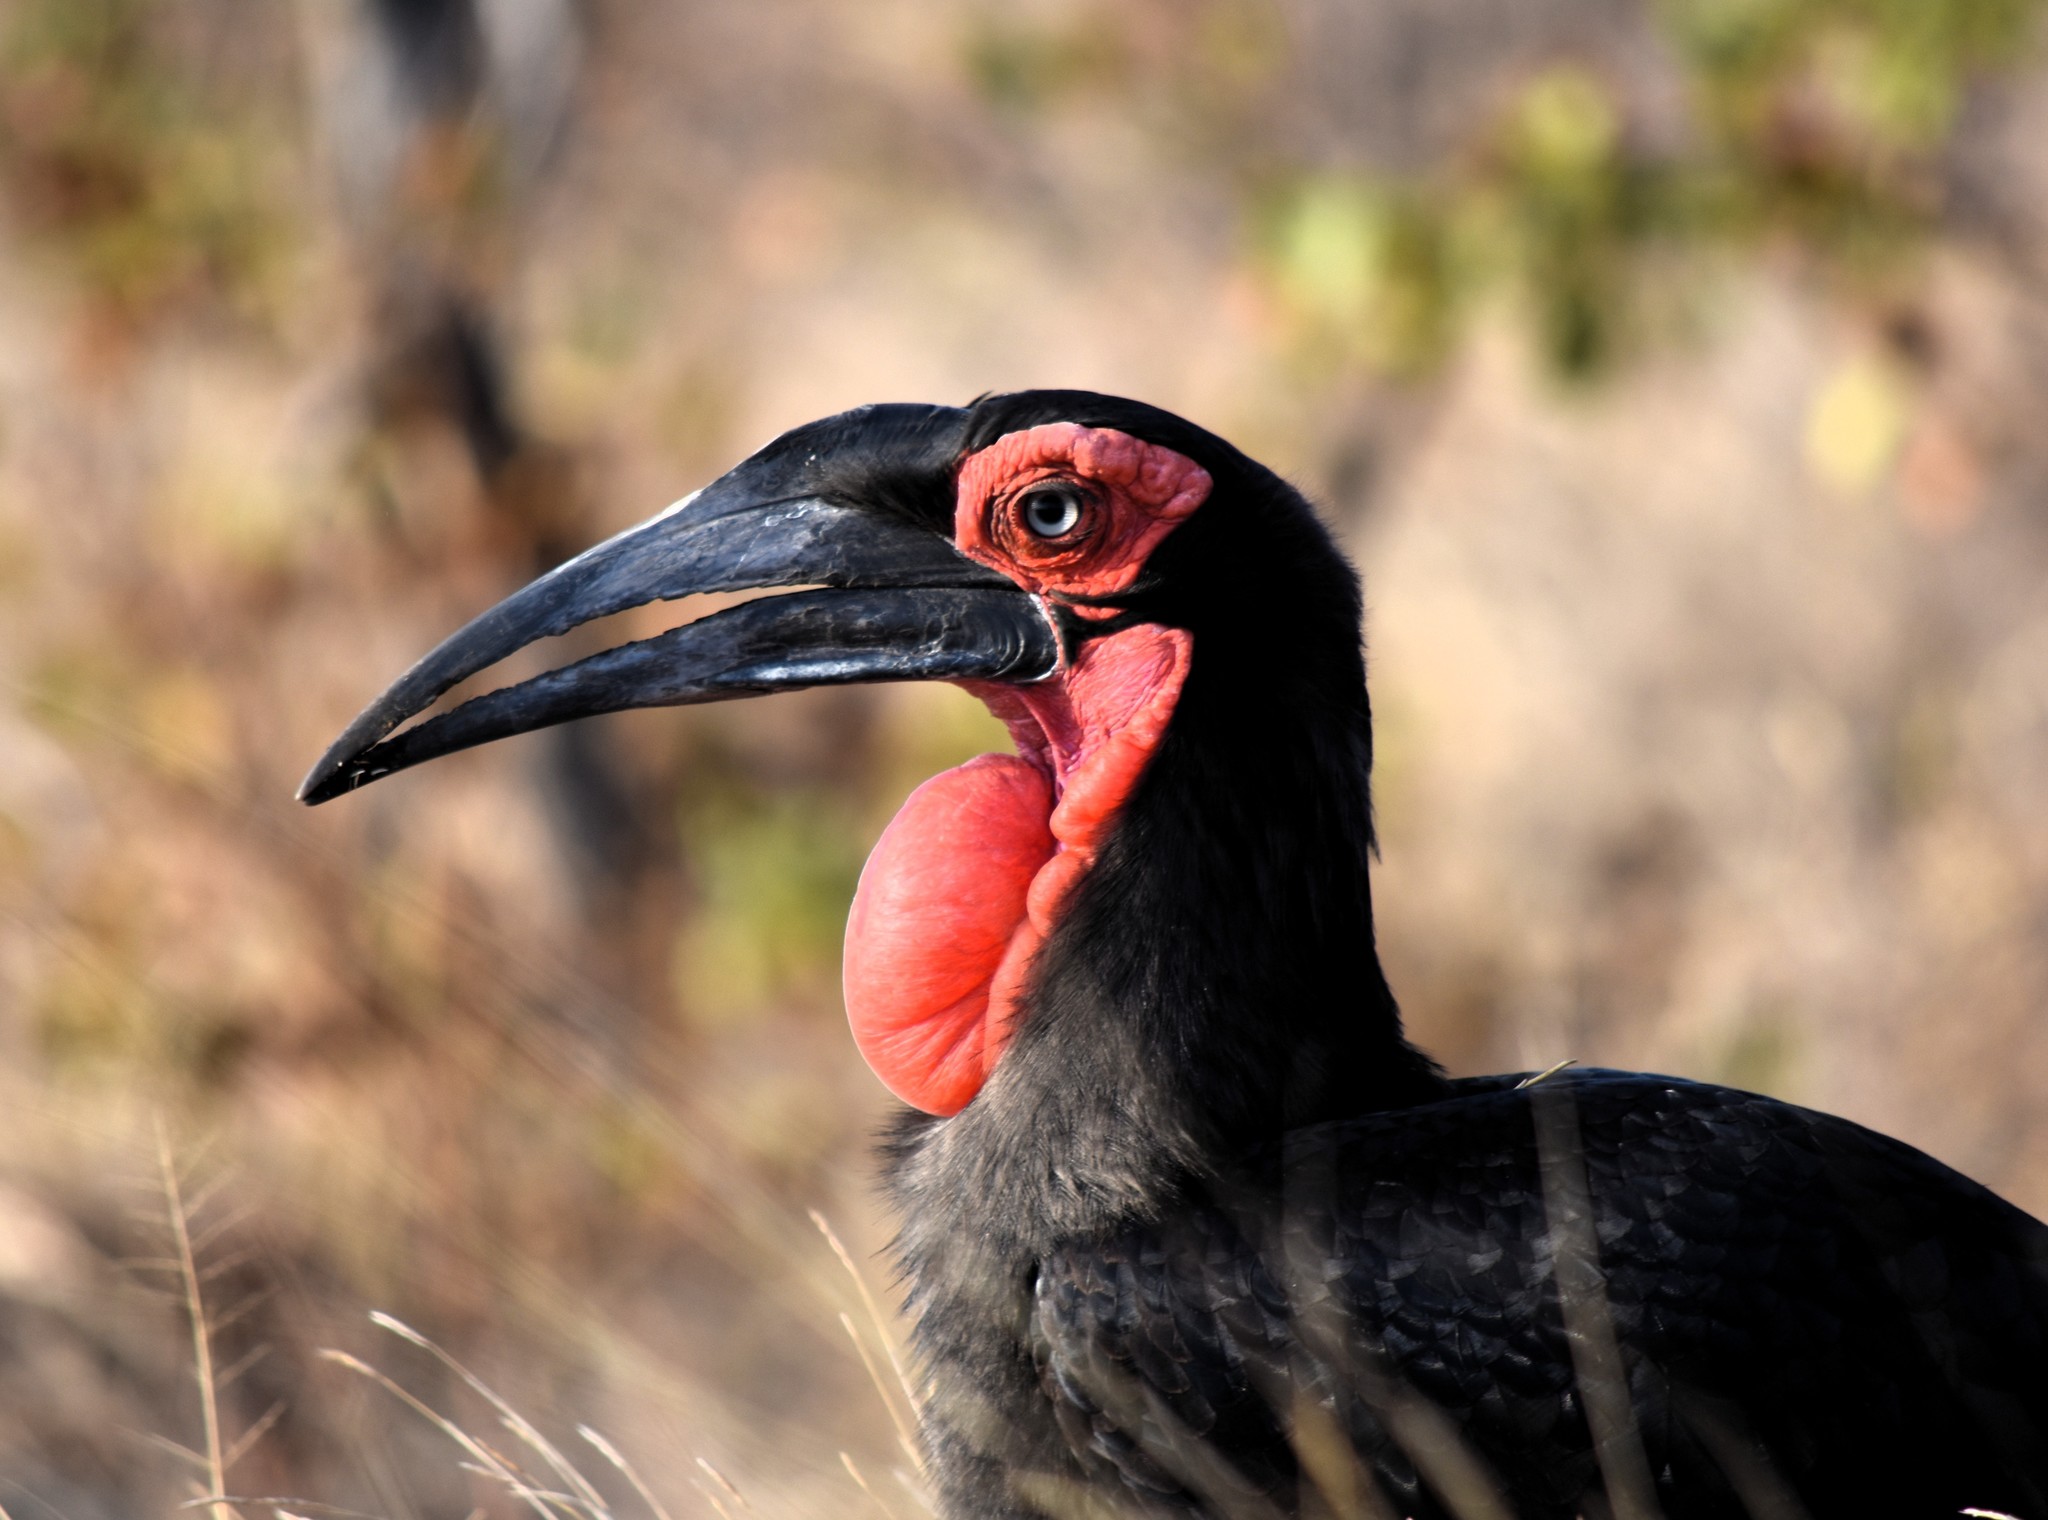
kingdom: Animalia
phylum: Chordata
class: Aves
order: Bucerotiformes
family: Bucorvidae
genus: Bucorvus
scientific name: Bucorvus leadbeateri
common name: Southern ground-hornbill
